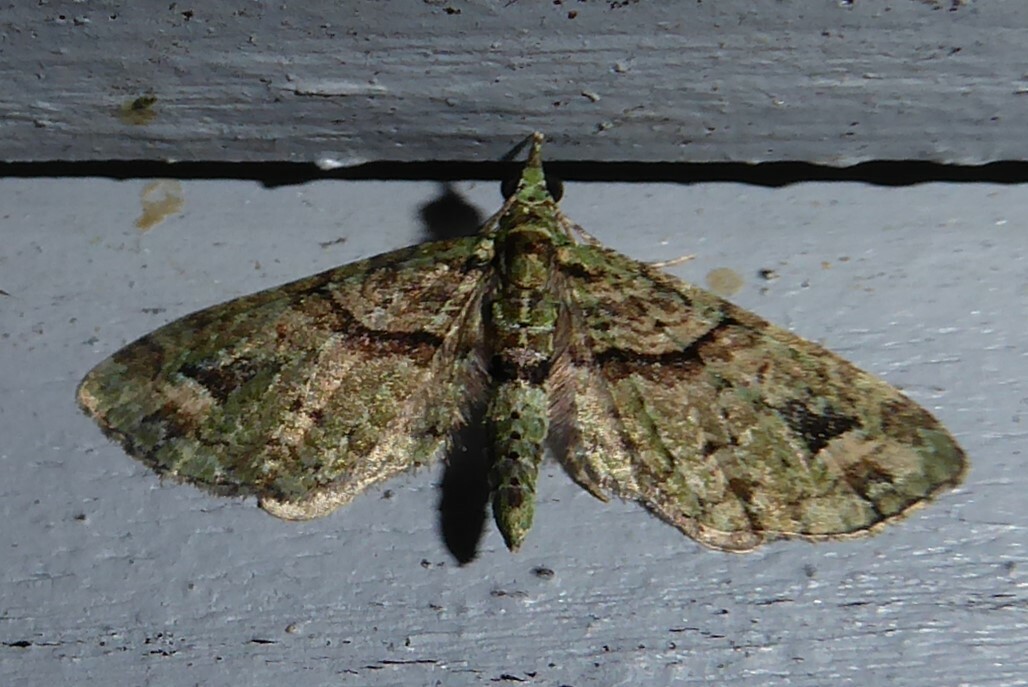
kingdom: Animalia
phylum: Arthropoda
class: Insecta
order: Lepidoptera
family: Geometridae
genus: Idaea
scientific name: Idaea mutanda
